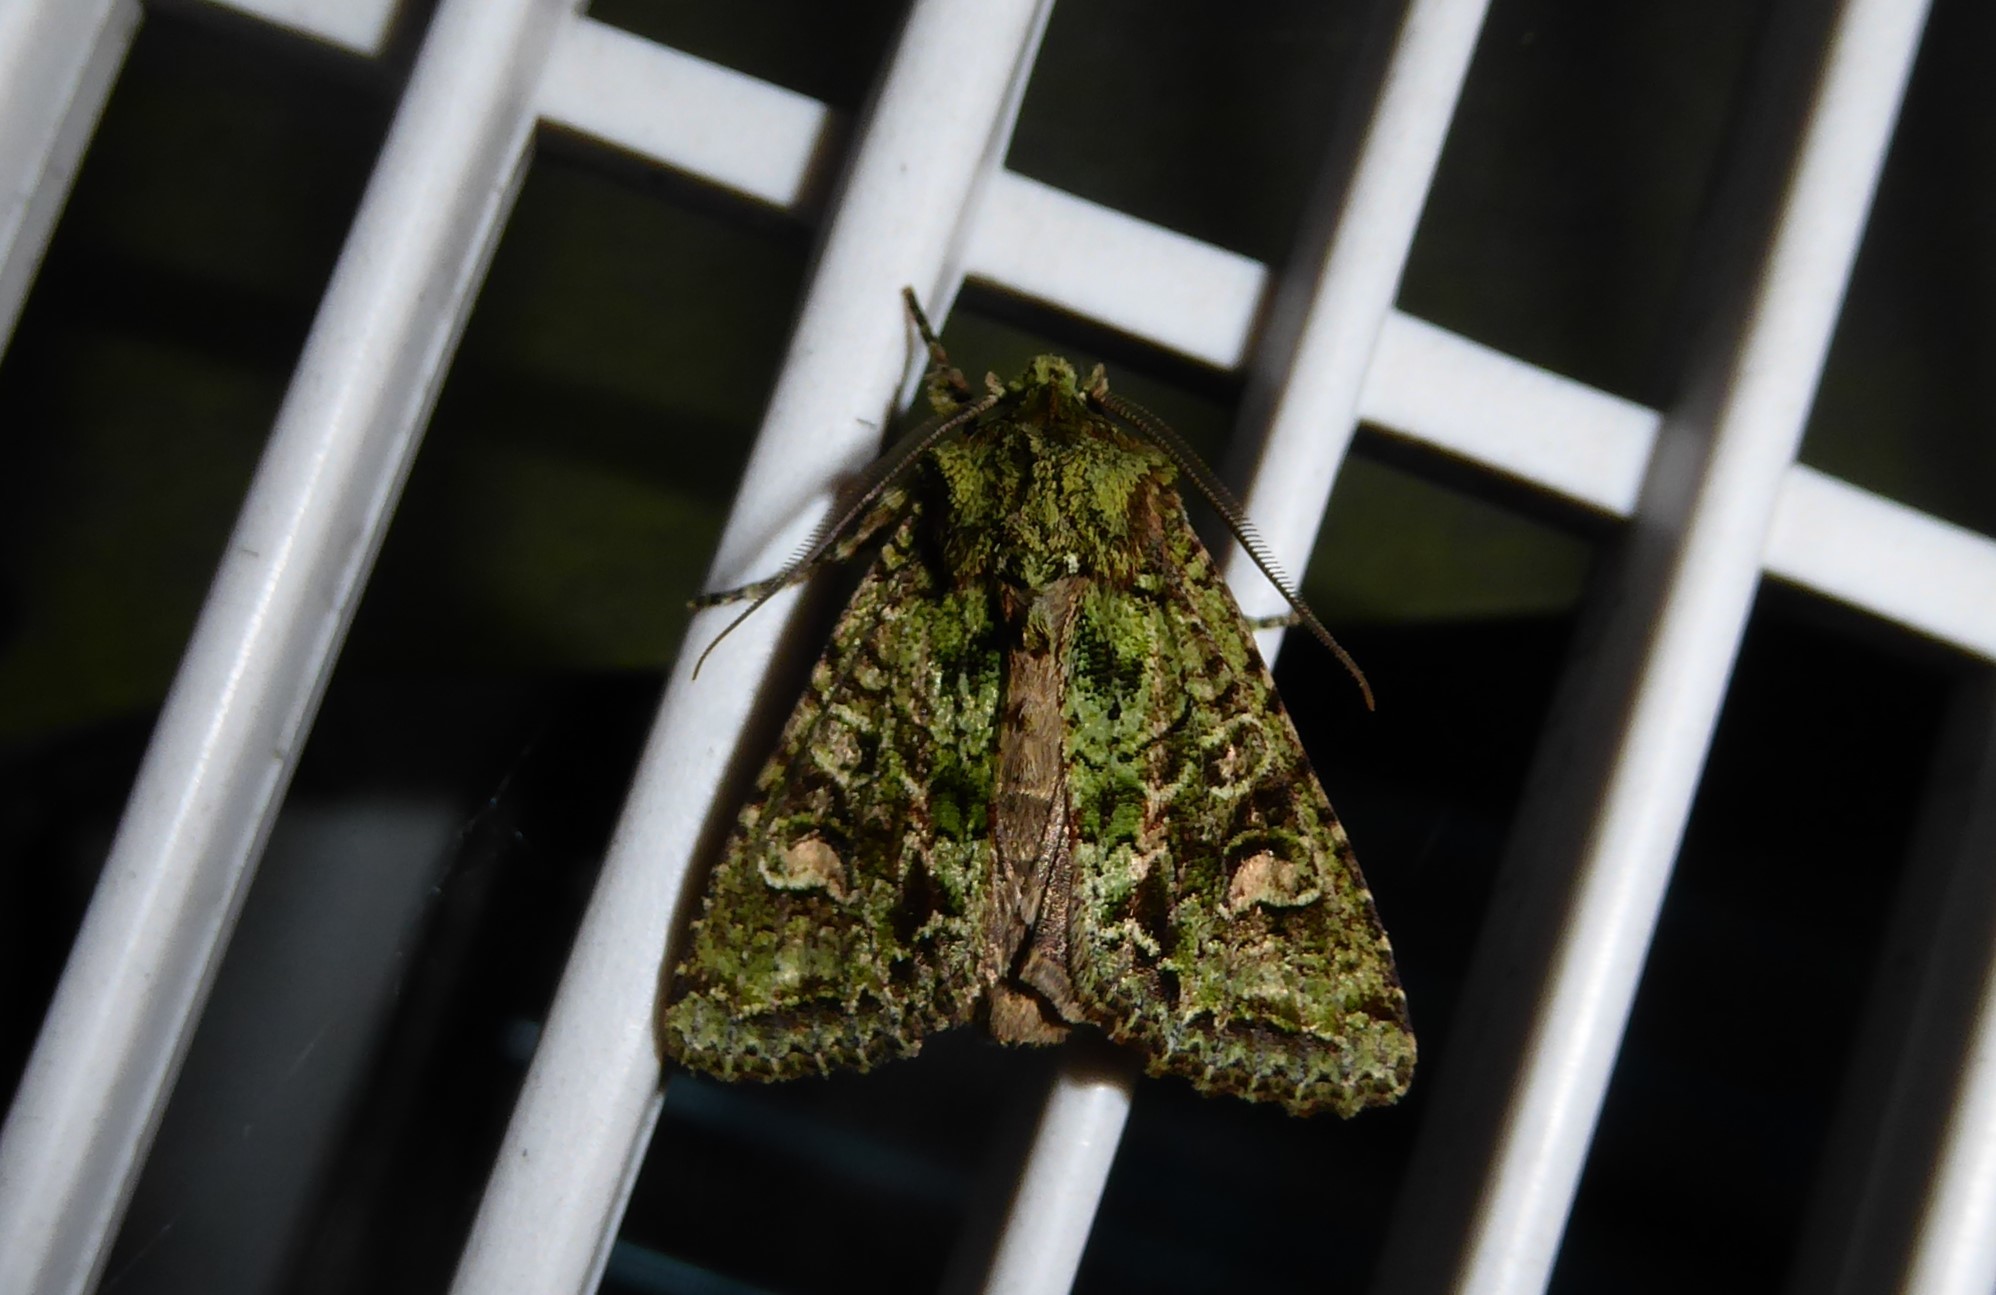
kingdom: Animalia
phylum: Arthropoda
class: Insecta
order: Lepidoptera
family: Noctuidae
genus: Ichneutica
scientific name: Ichneutica
